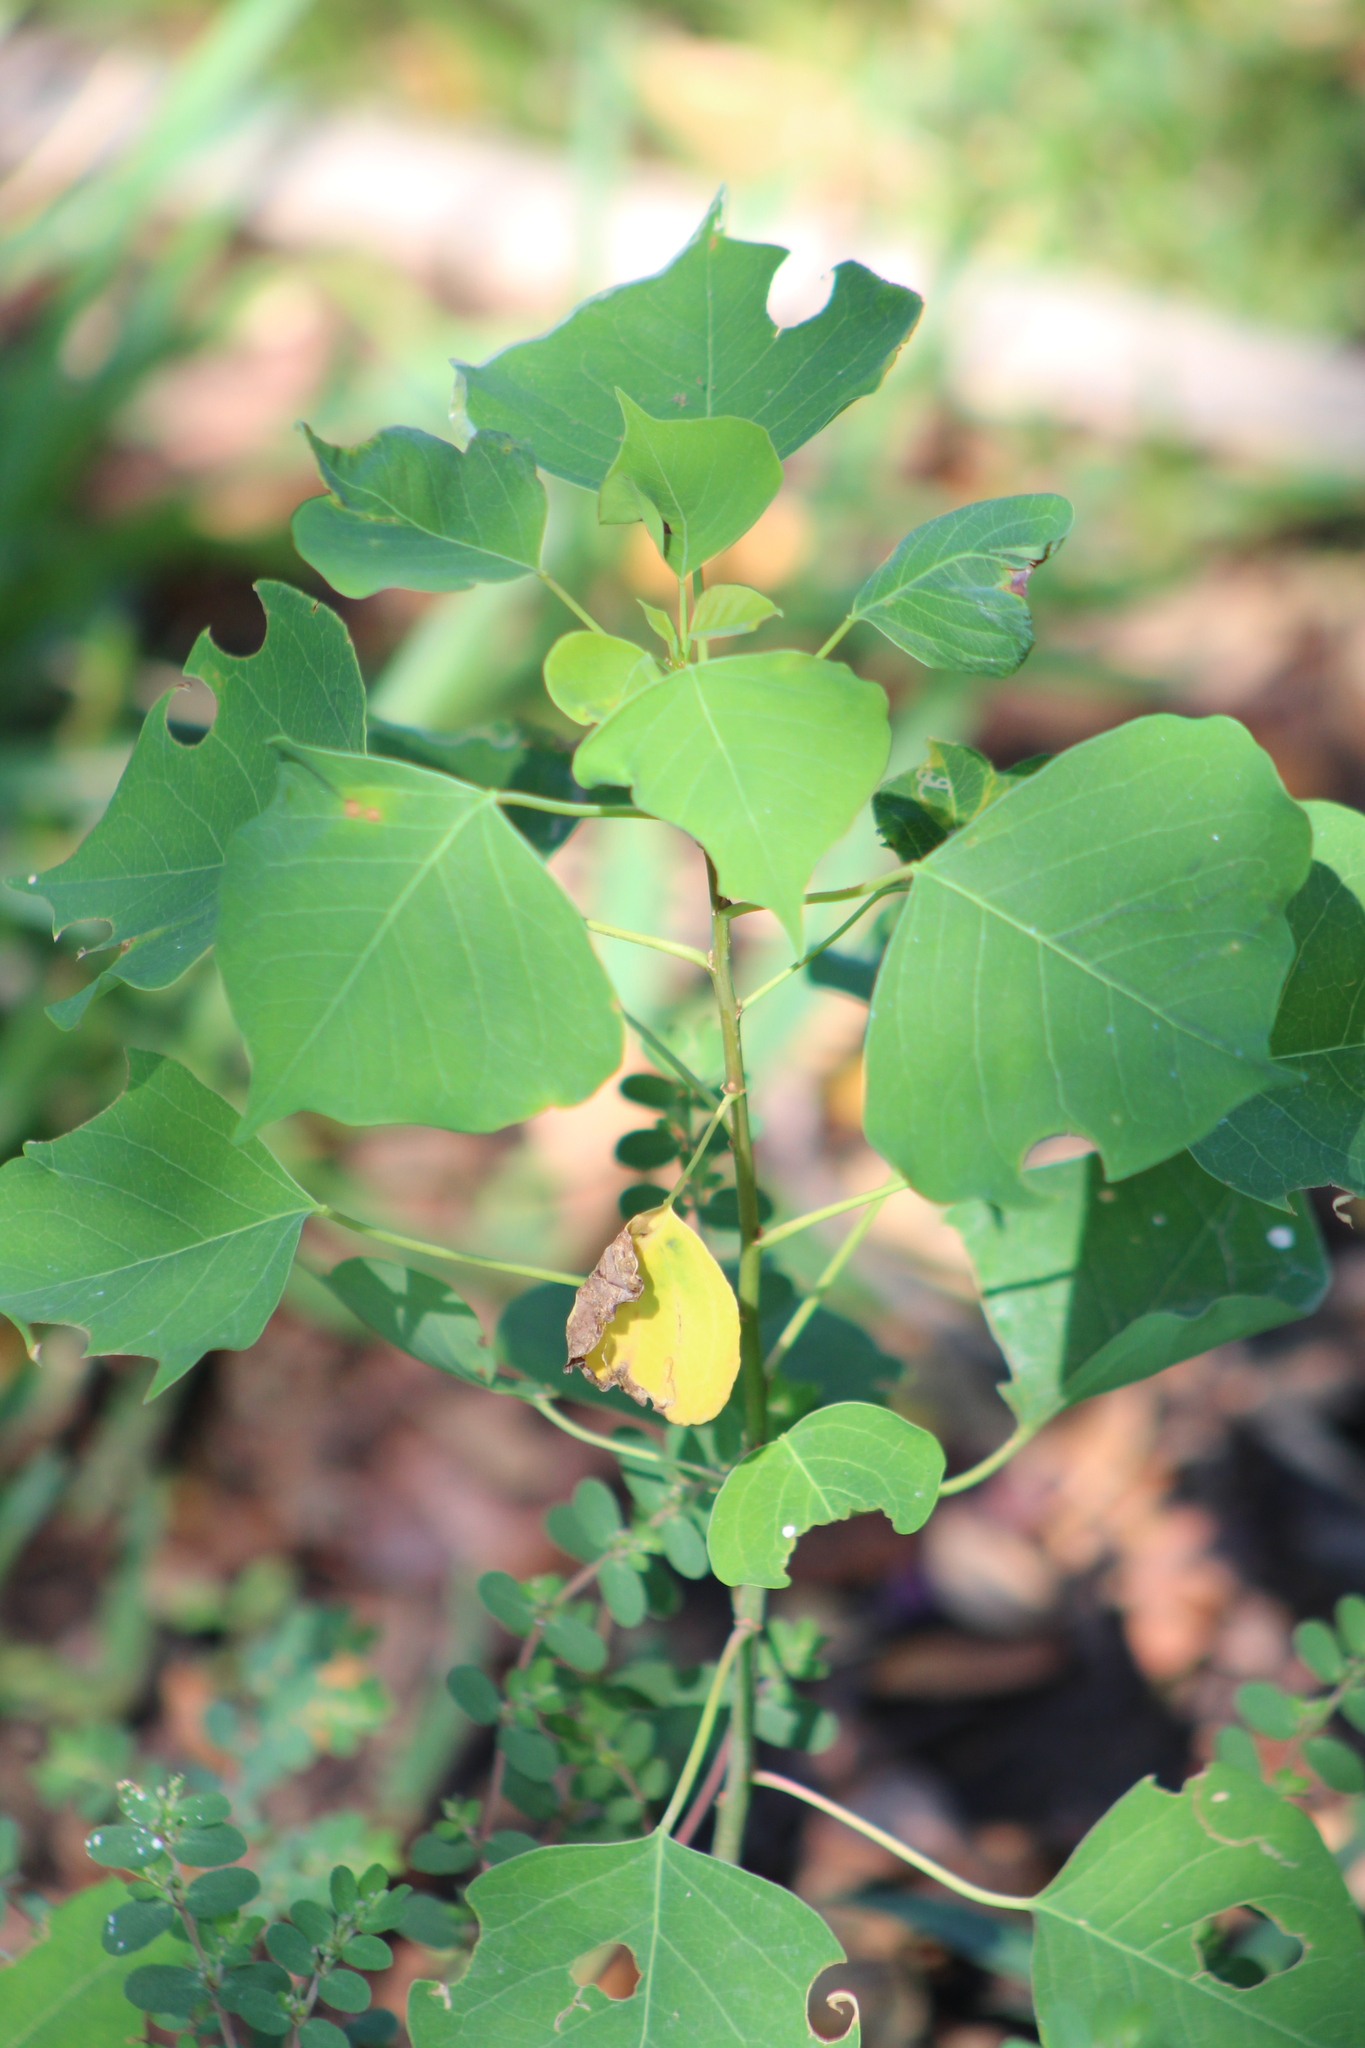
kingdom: Plantae
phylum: Tracheophyta
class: Magnoliopsida
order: Malpighiales
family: Euphorbiaceae
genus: Triadica
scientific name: Triadica sebifera
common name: Chinese tallow
